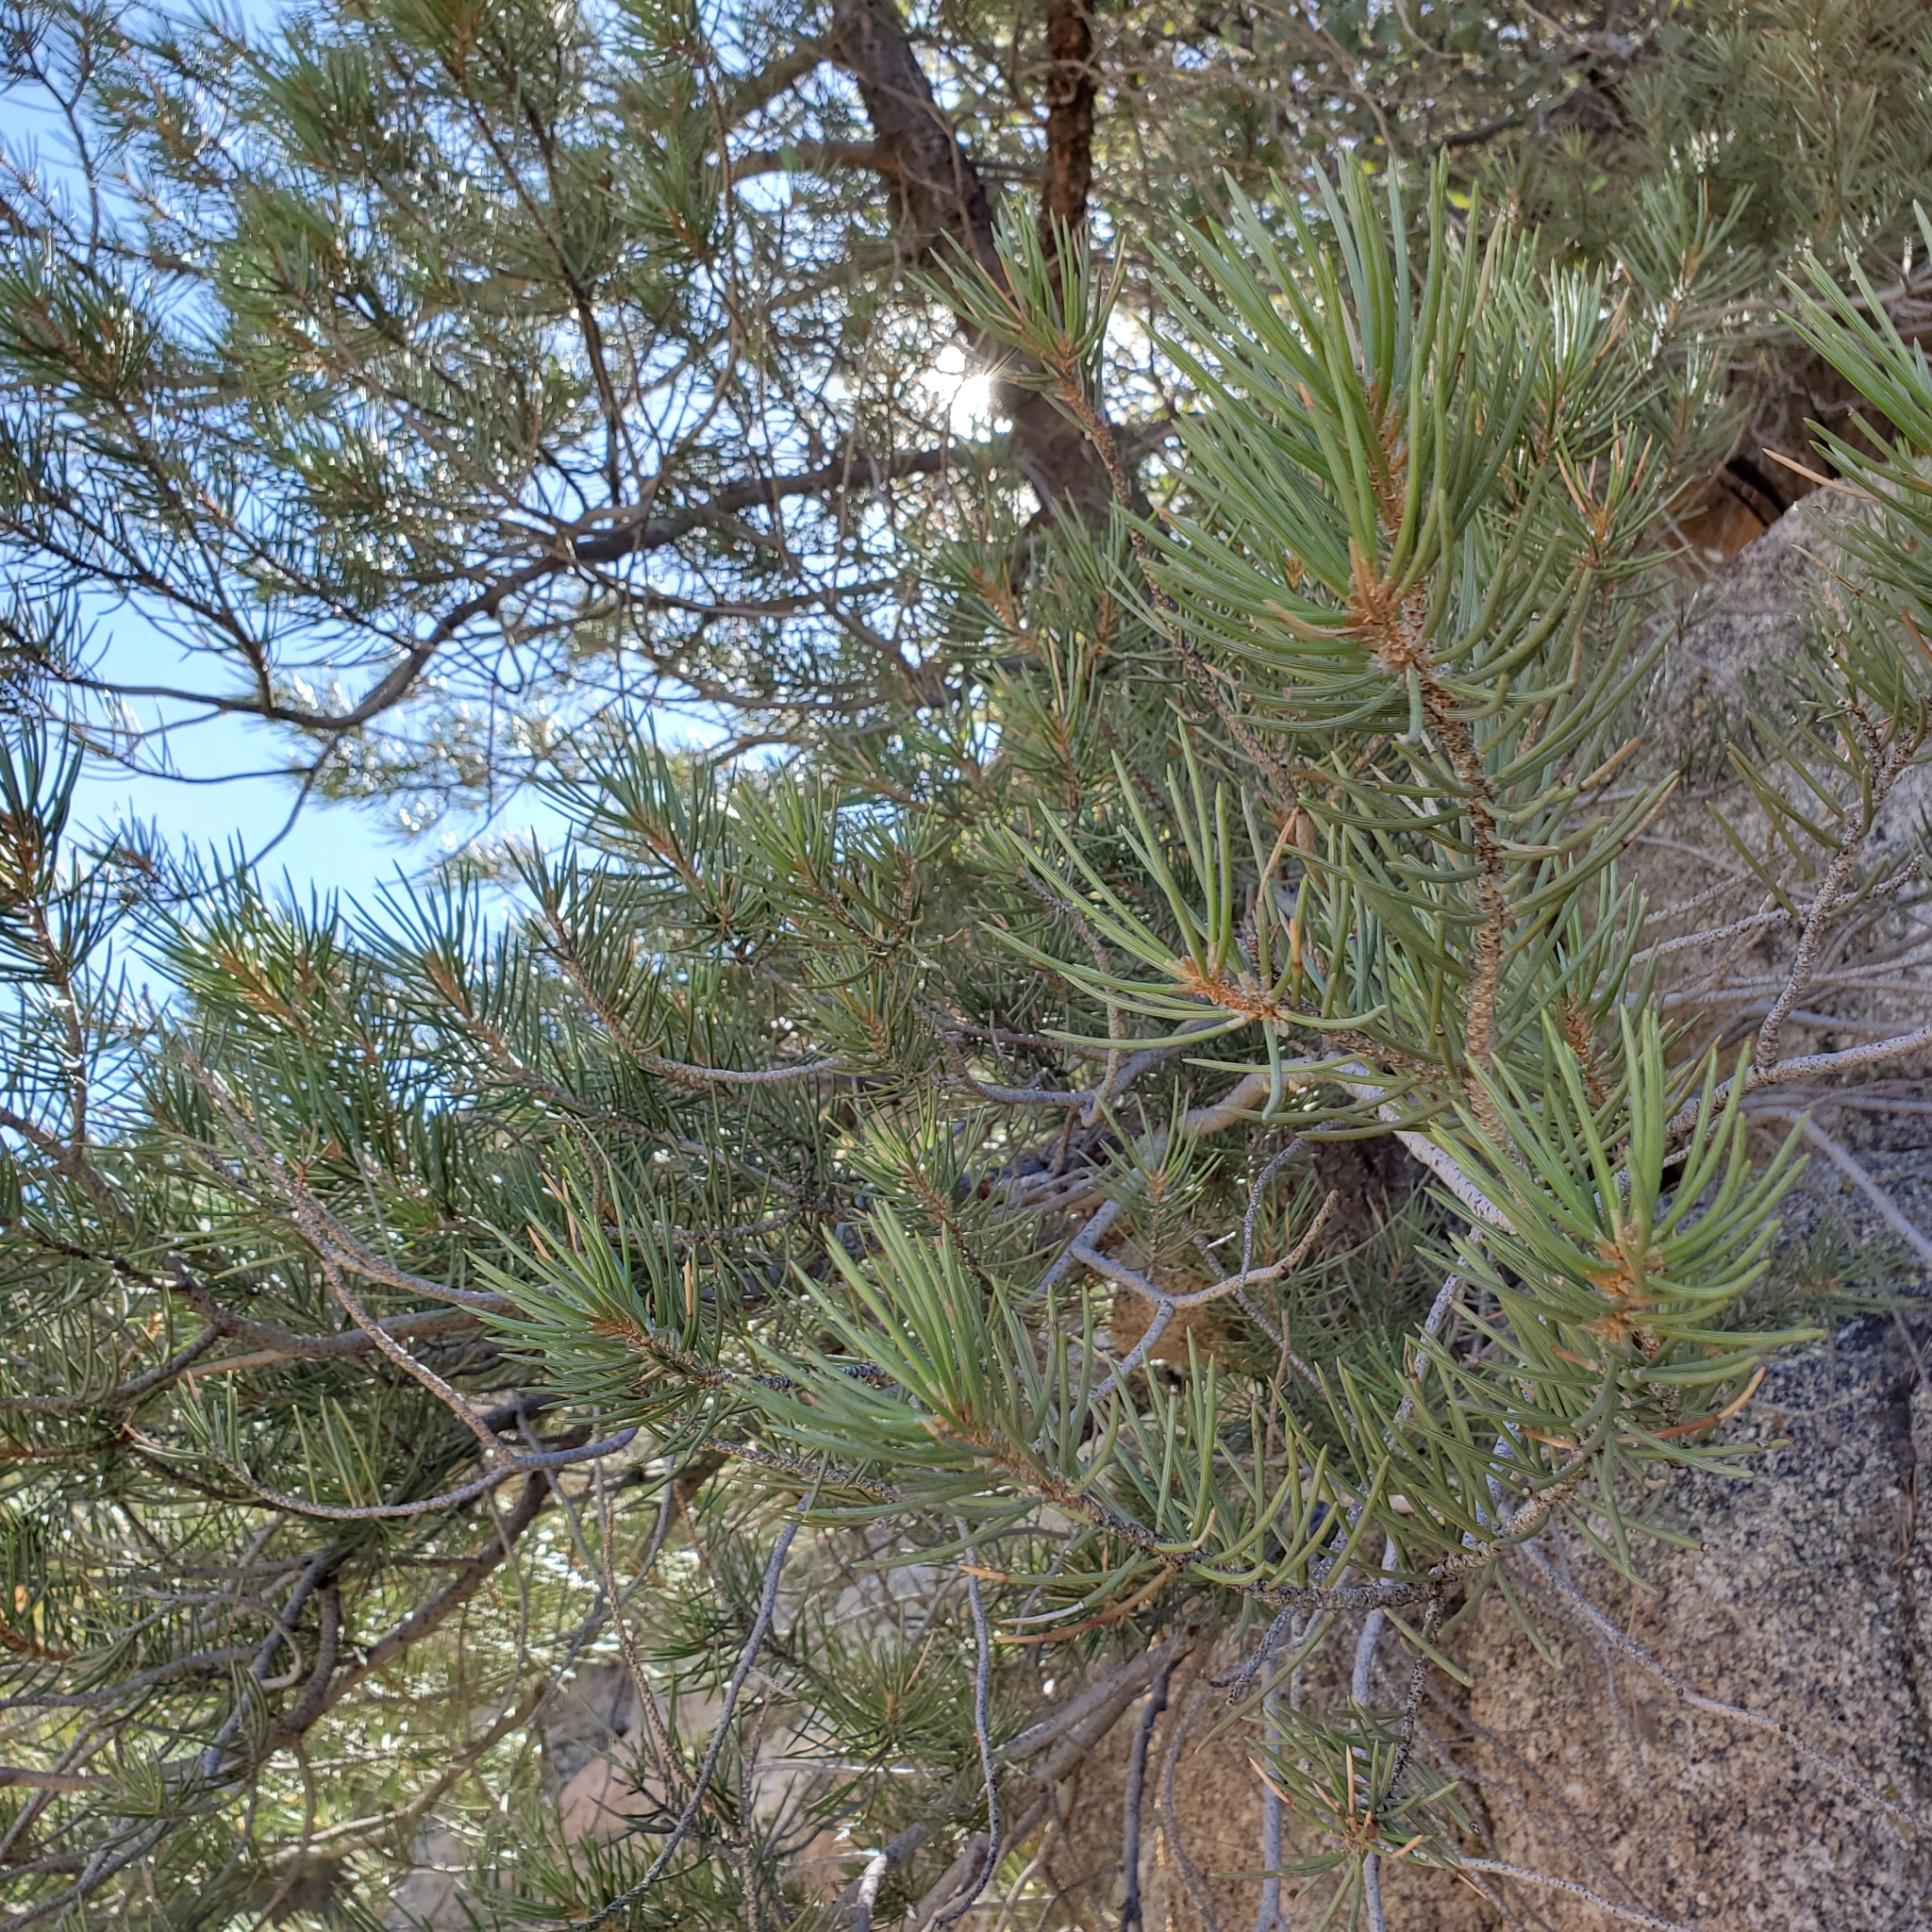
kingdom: Plantae
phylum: Tracheophyta
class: Pinopsida
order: Pinales
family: Pinaceae
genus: Pinus
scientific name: Pinus monophylla
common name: One-leaved nut pine
